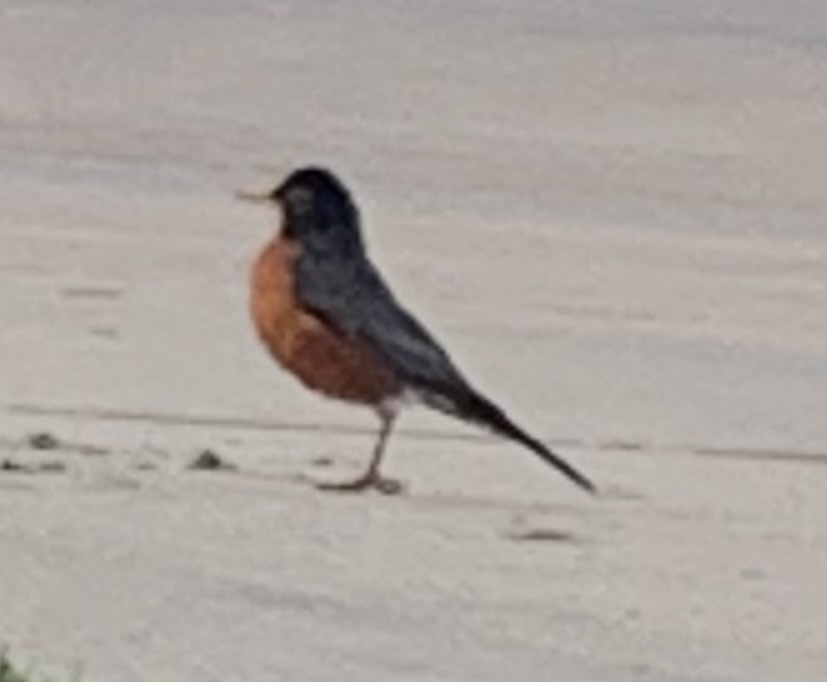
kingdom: Animalia
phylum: Chordata
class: Aves
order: Passeriformes
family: Turdidae
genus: Turdus
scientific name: Turdus migratorius
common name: American robin
